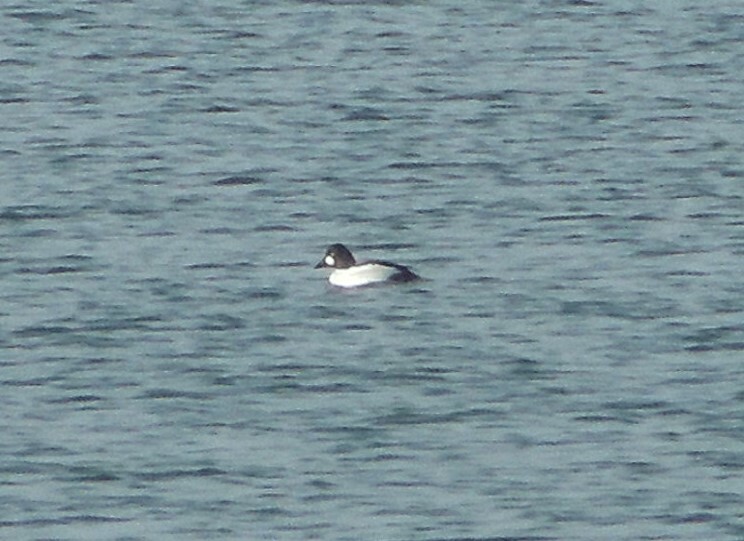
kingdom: Animalia
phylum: Chordata
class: Aves
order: Anseriformes
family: Anatidae
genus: Bucephala
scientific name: Bucephala clangula
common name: Common goldeneye
